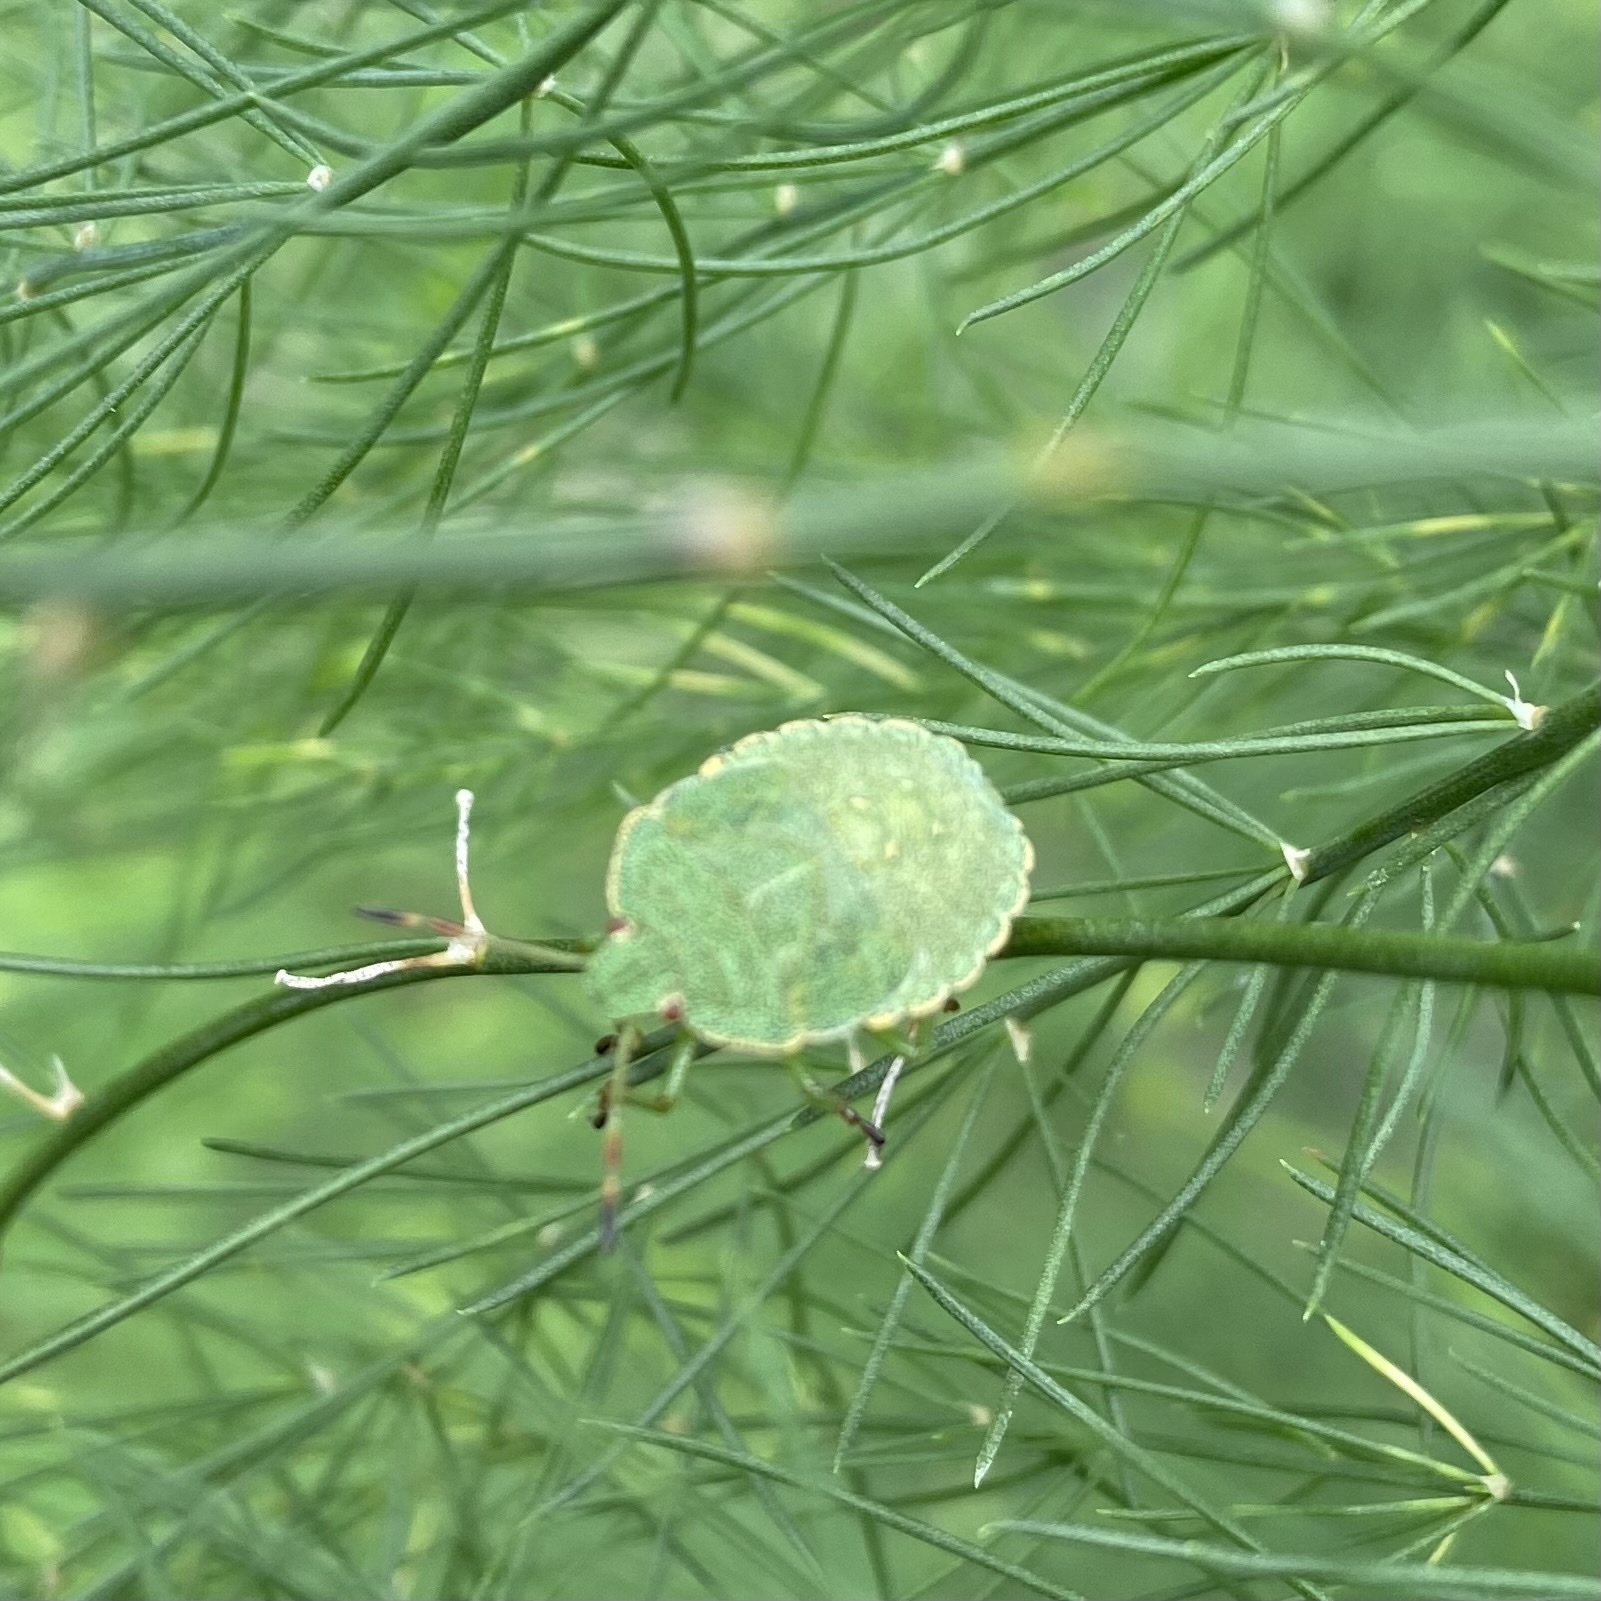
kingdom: Animalia
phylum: Arthropoda
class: Insecta
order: Hemiptera
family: Pentatomidae
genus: Palomena
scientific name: Palomena prasina
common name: Green shieldbug
